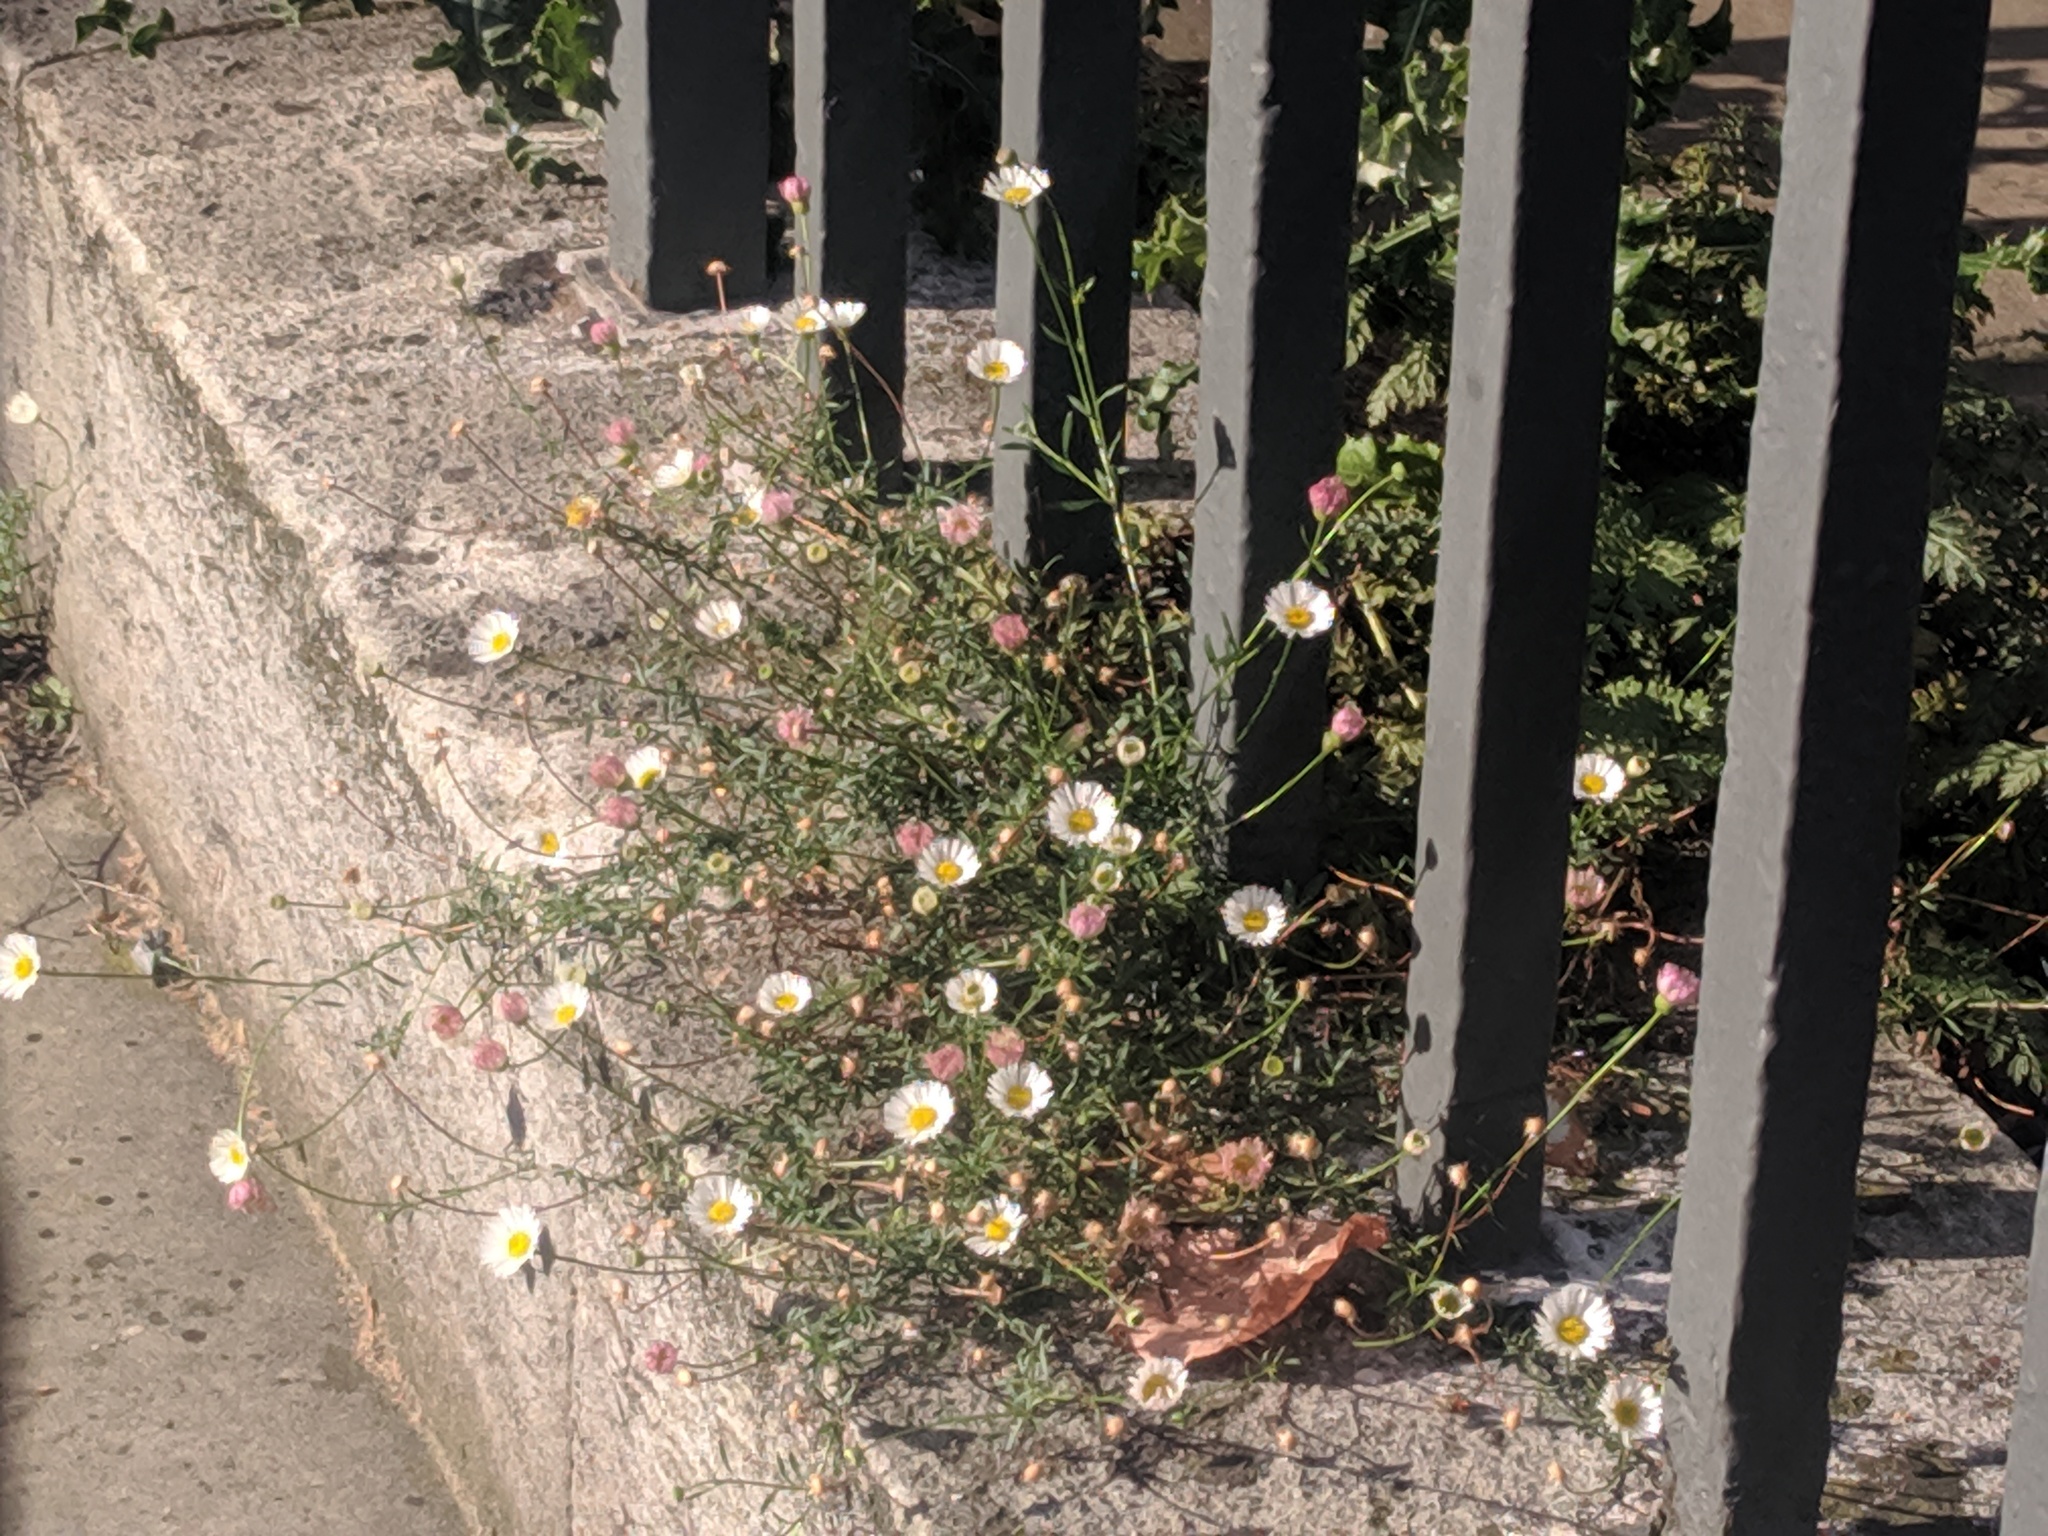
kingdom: Plantae
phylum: Tracheophyta
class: Magnoliopsida
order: Asterales
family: Asteraceae
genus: Erigeron
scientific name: Erigeron karvinskianus
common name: Mexican fleabane
